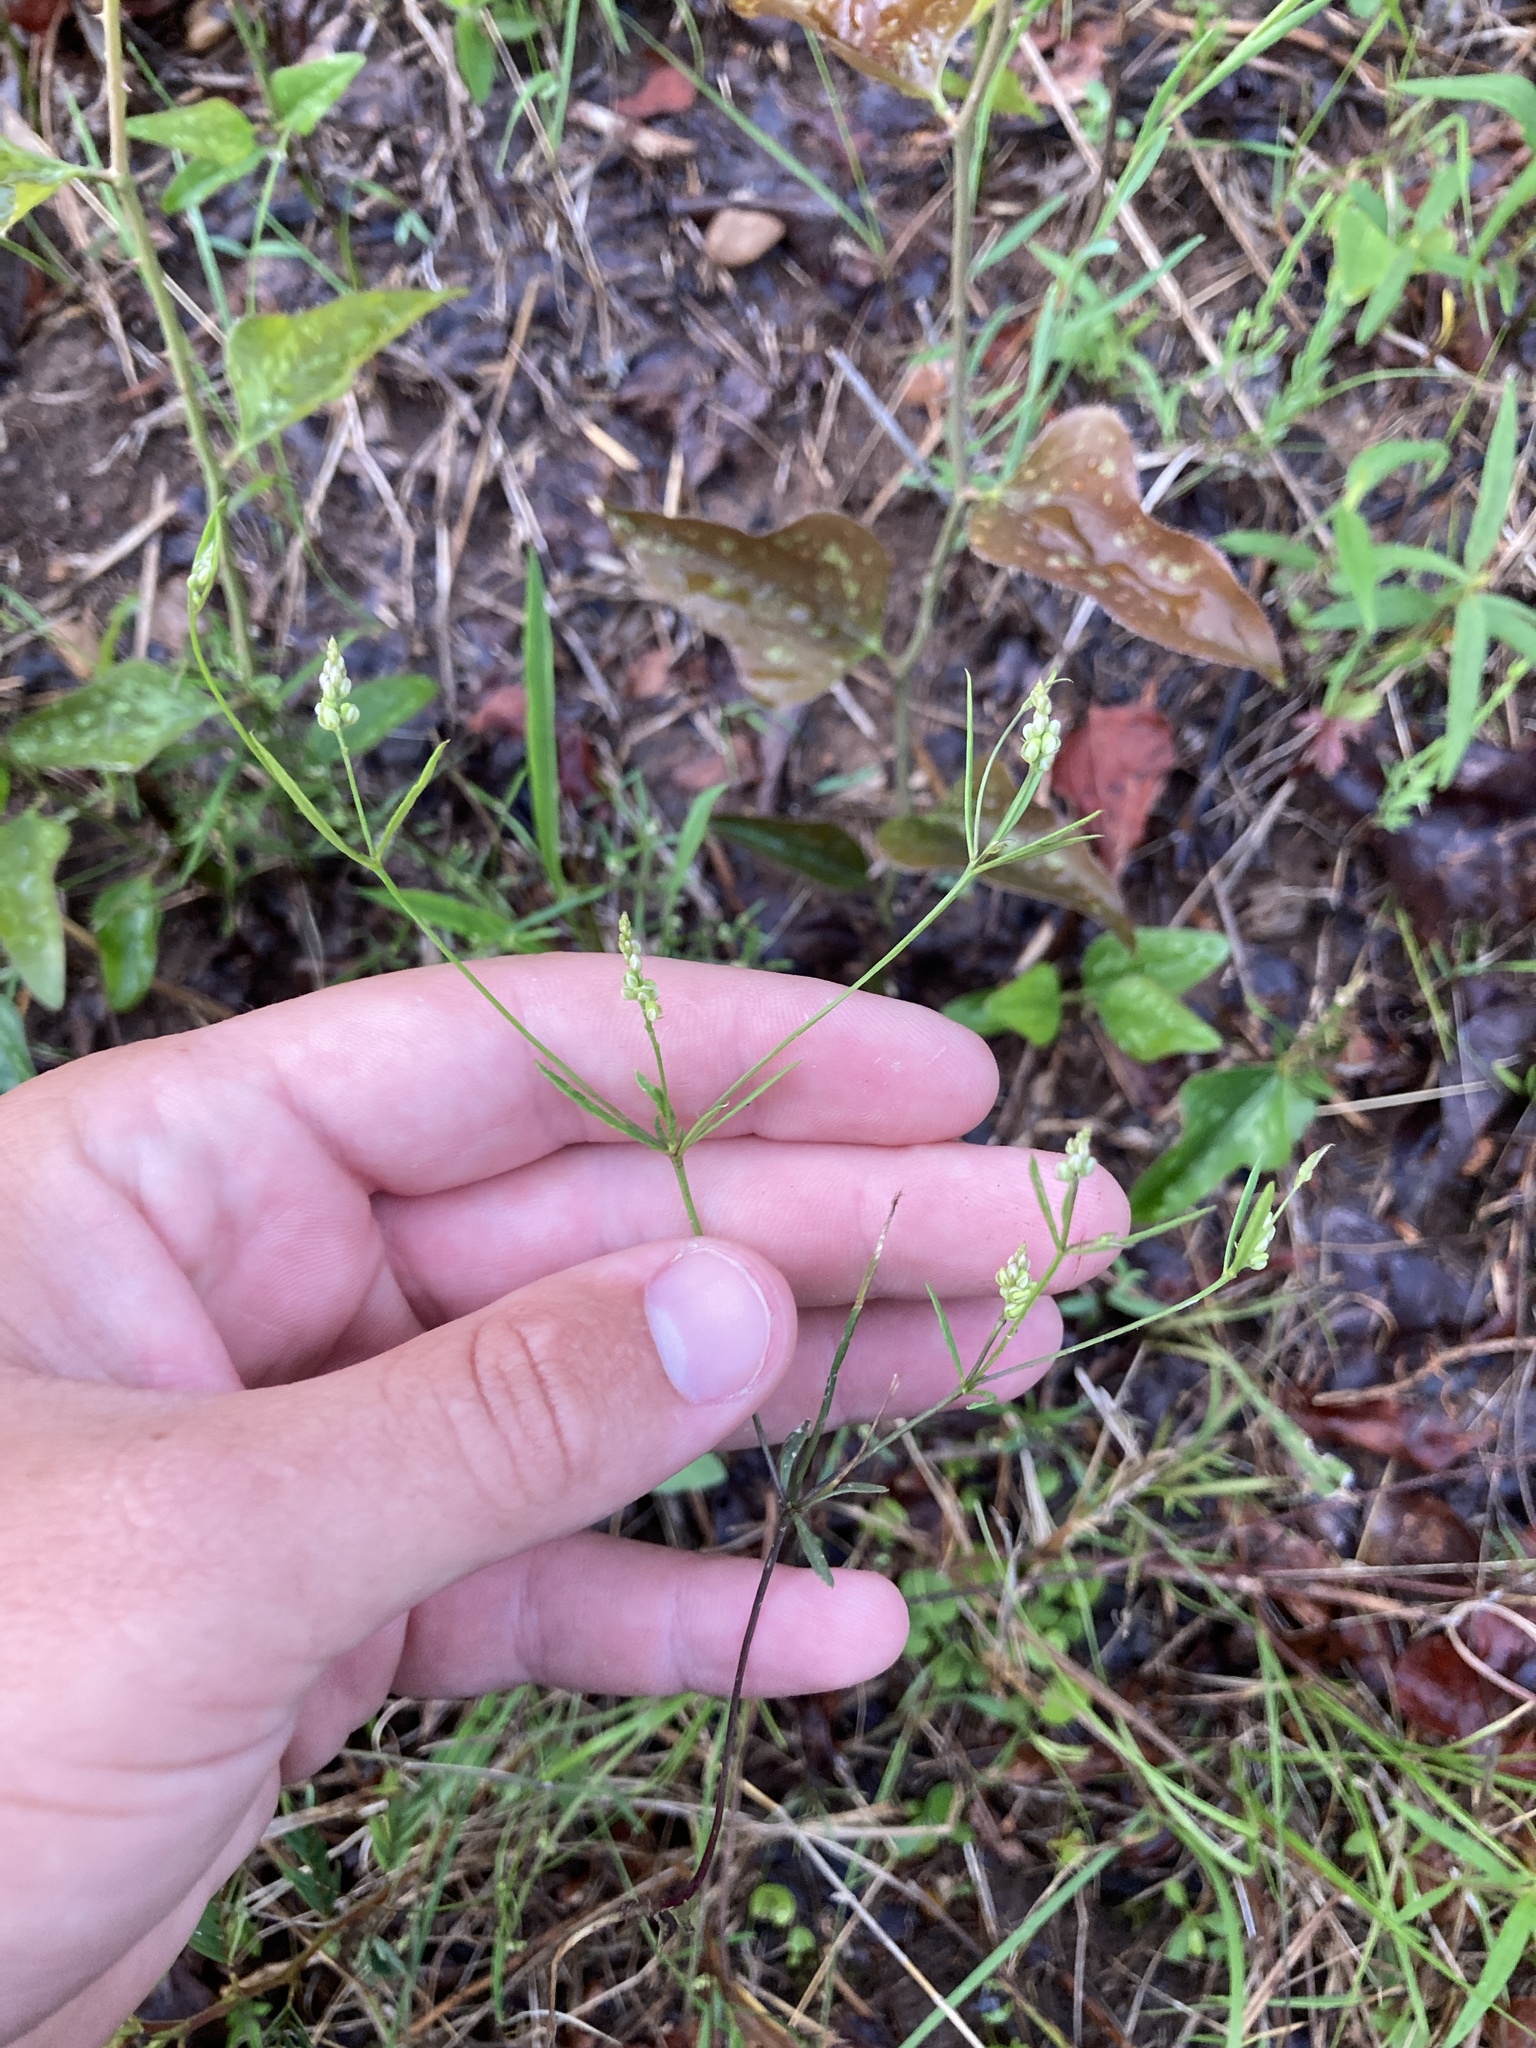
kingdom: Plantae
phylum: Tracheophyta
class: Magnoliopsida
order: Fabales
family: Polygalaceae
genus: Polygala
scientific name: Polygala verticillata
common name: Whorl milkwort
